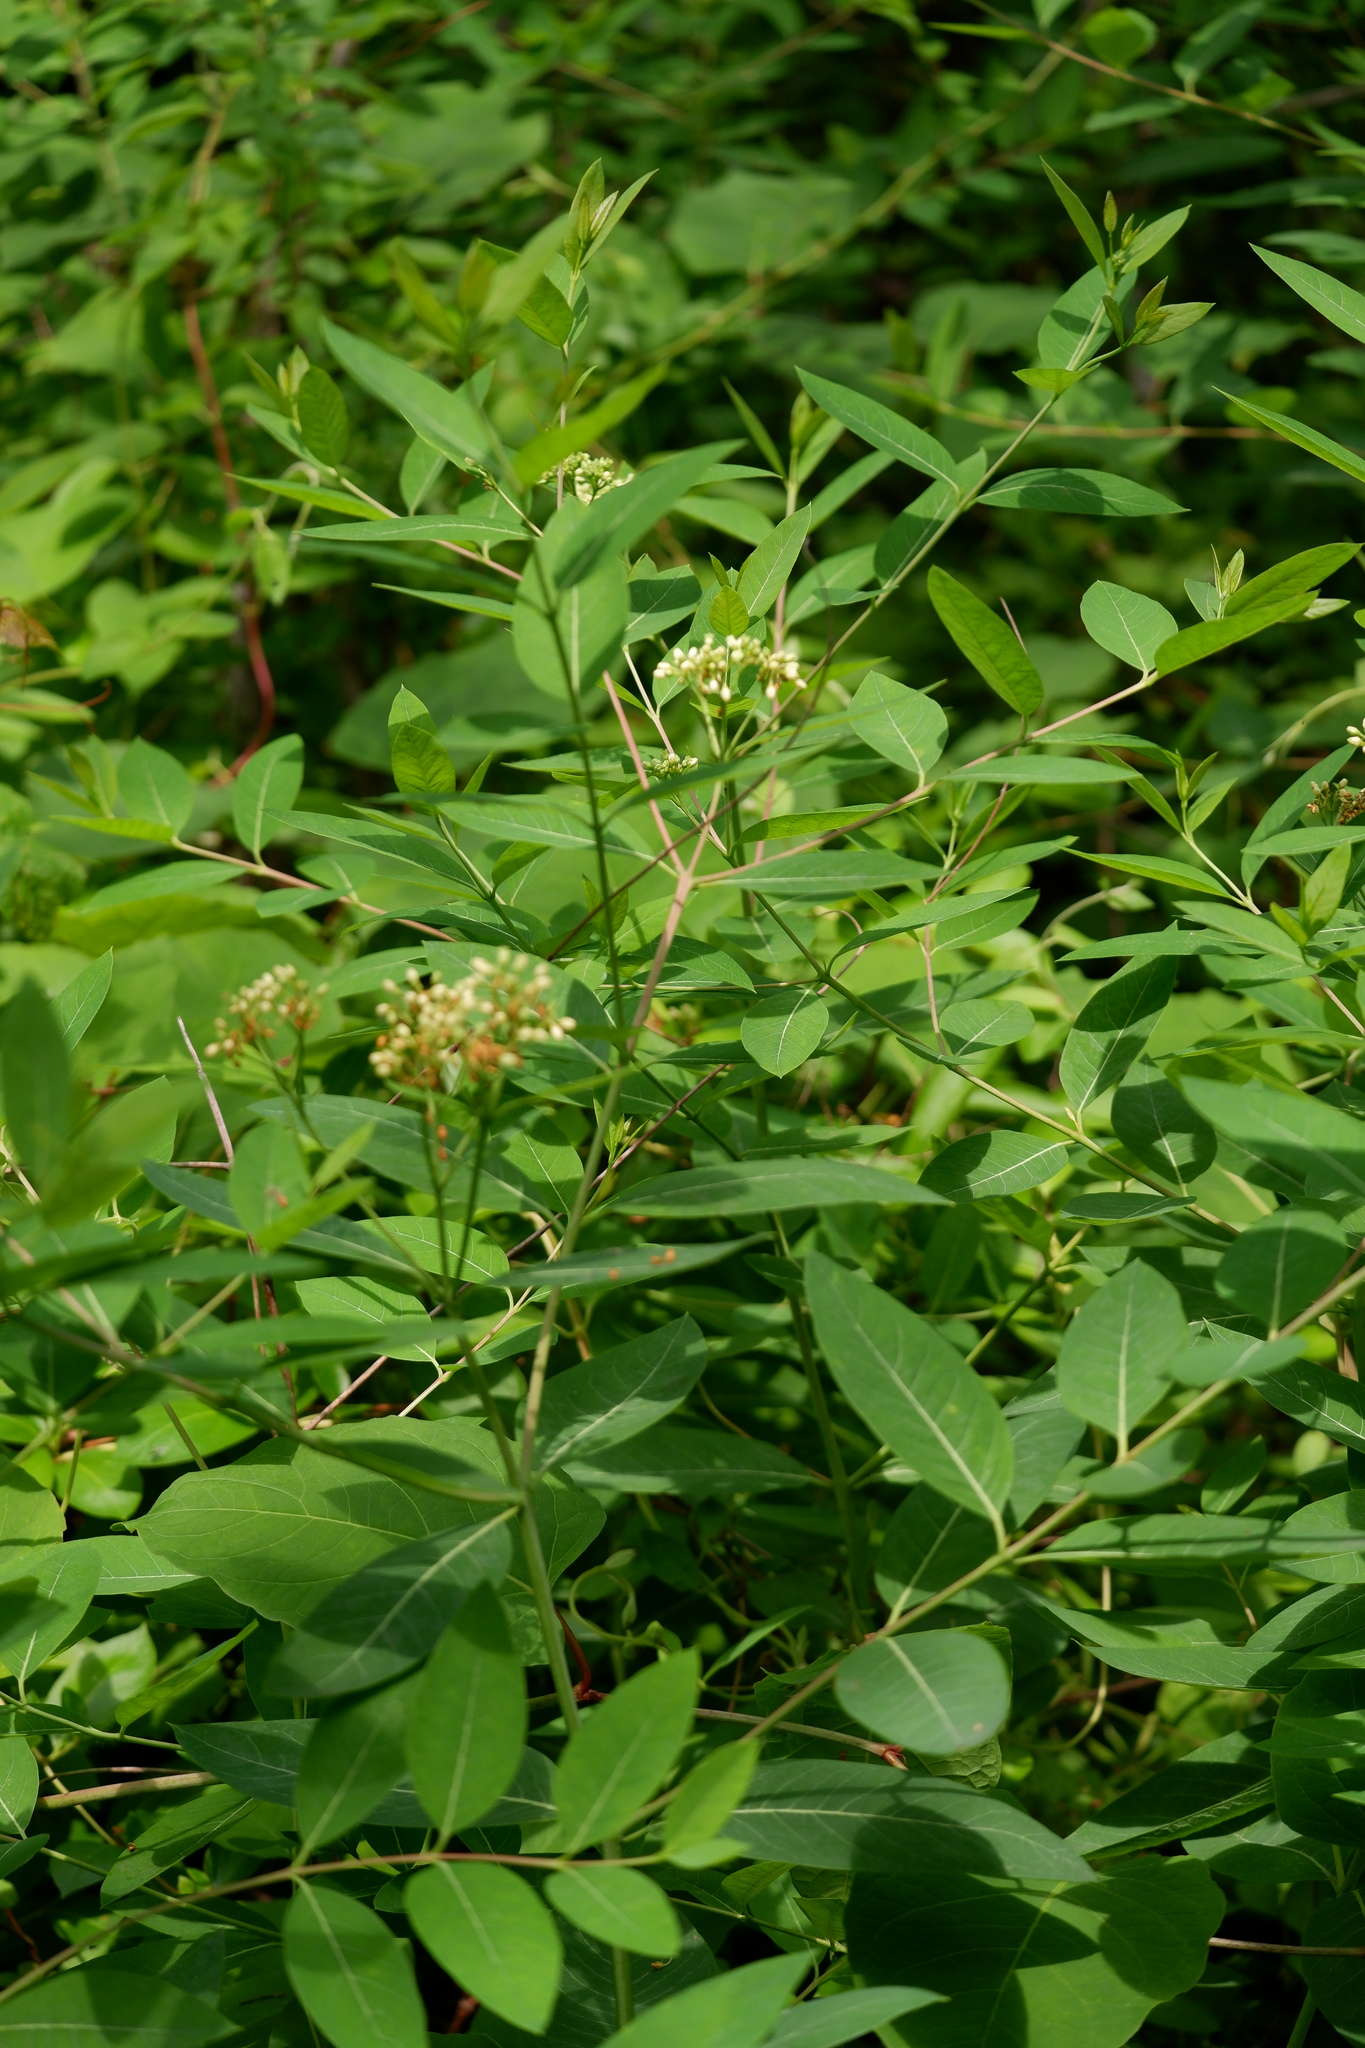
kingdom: Plantae
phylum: Tracheophyta
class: Magnoliopsida
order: Gentianales
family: Apocynaceae
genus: Apocynum
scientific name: Apocynum cannabinum
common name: Hemp dogbane
